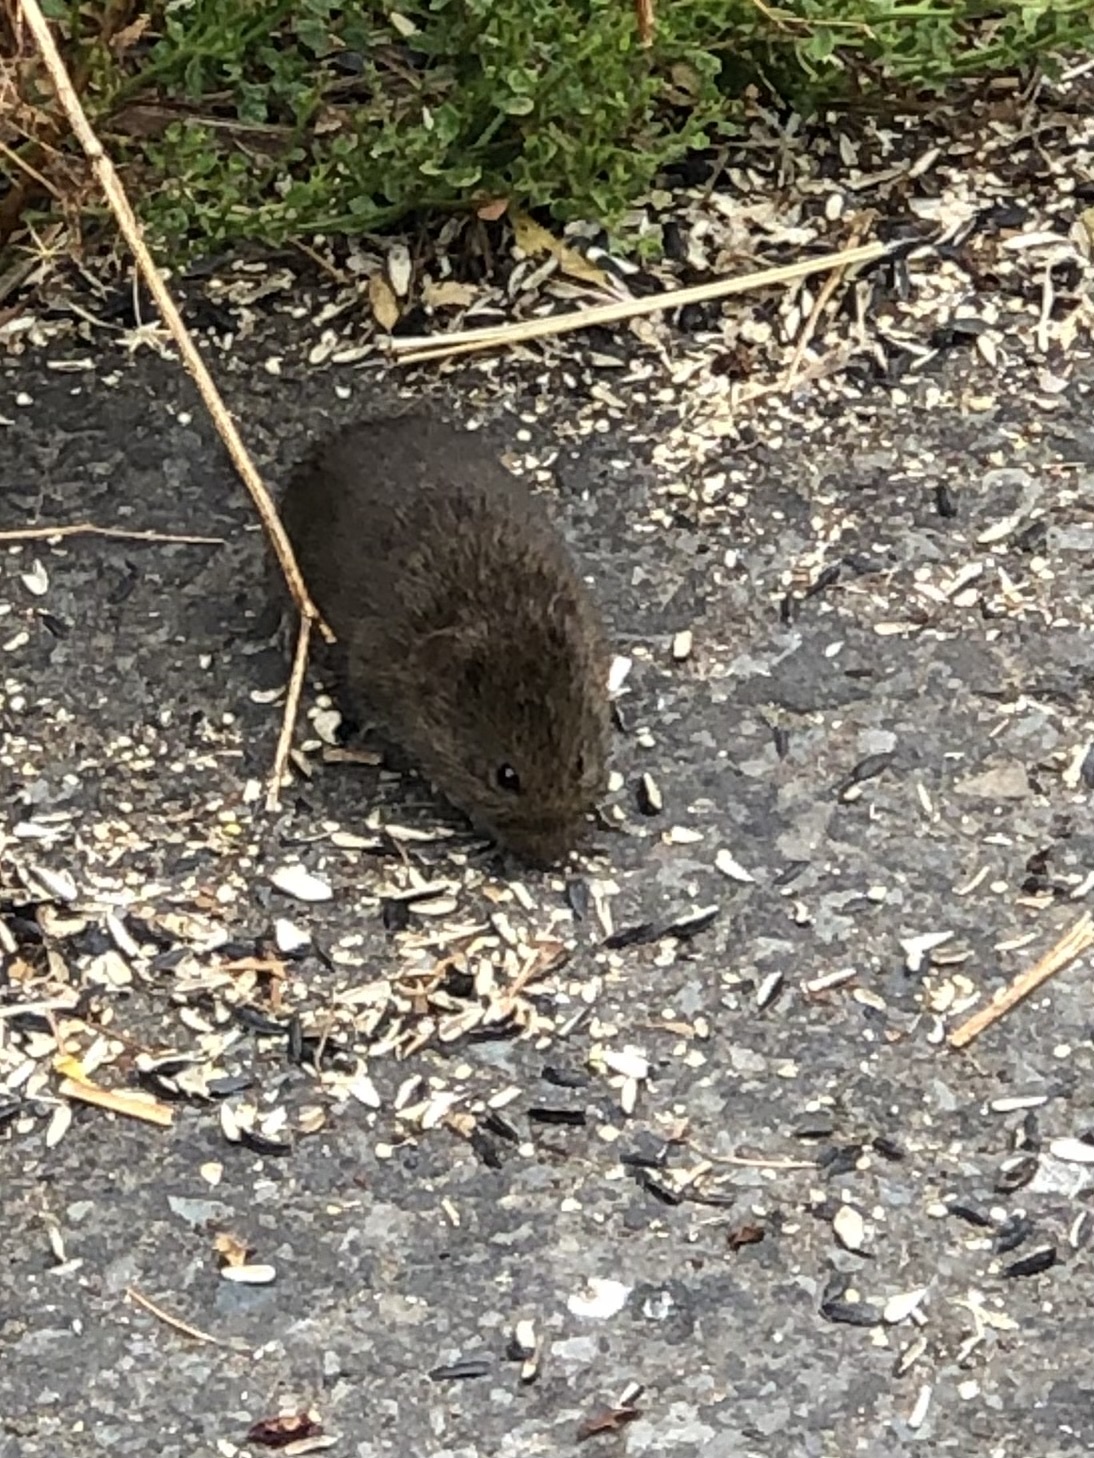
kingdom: Animalia
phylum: Chordata
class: Mammalia
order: Rodentia
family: Cricetidae
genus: Microtus
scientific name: Microtus californicus
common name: California vole
